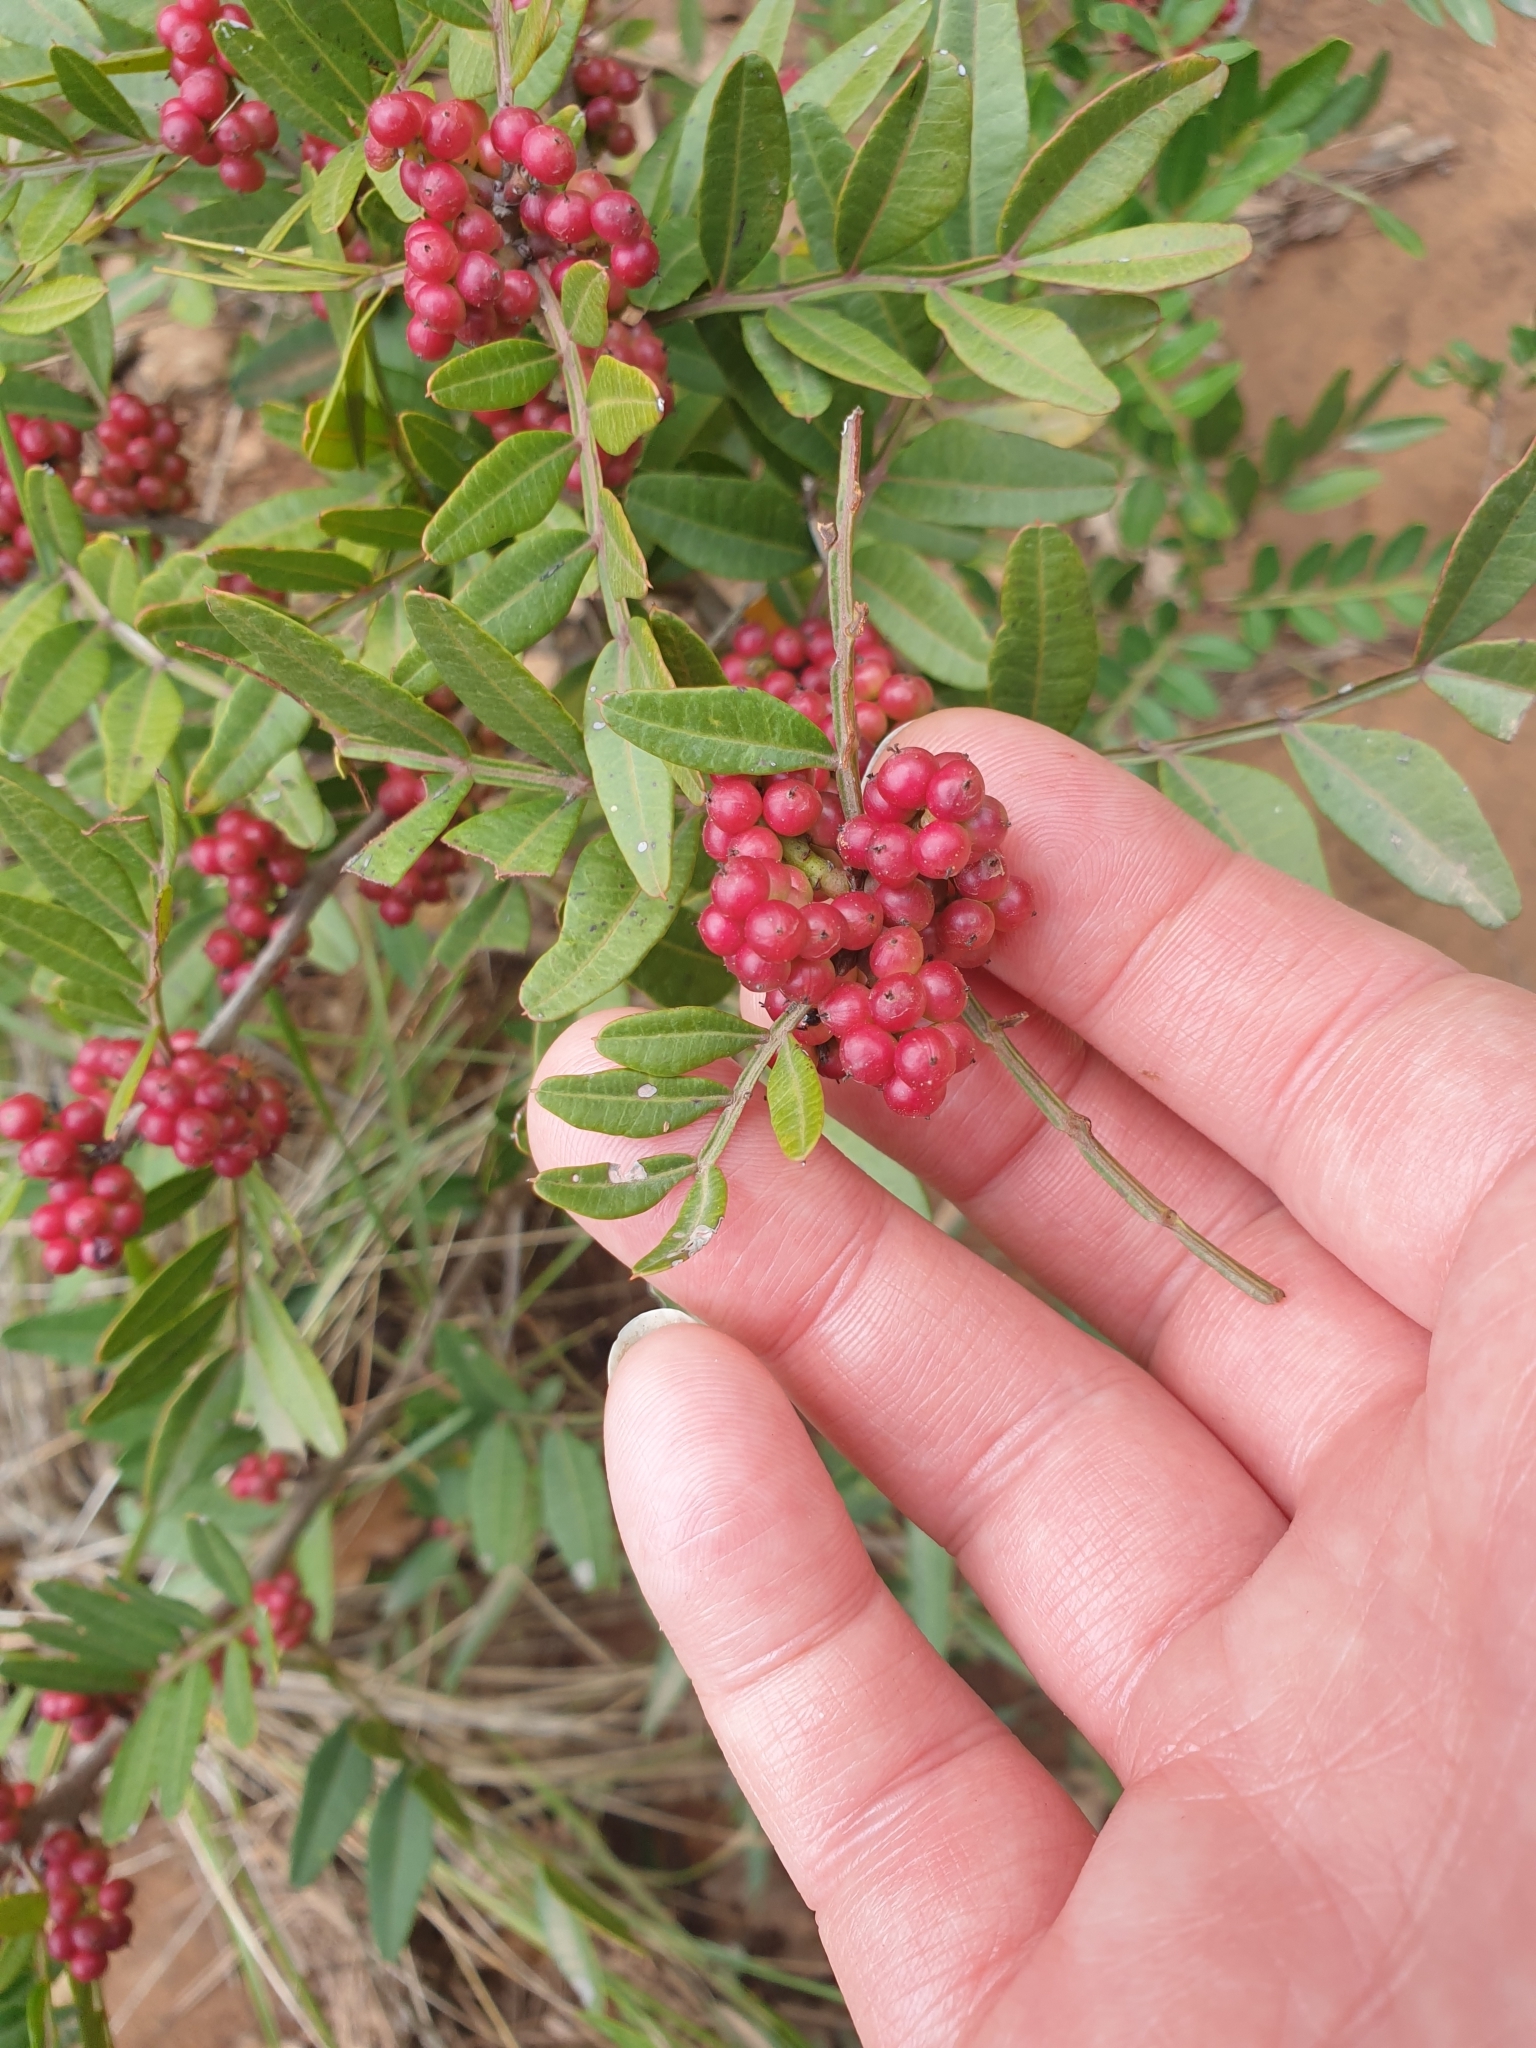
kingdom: Plantae
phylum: Tracheophyta
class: Magnoliopsida
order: Sapindales
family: Anacardiaceae
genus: Pistacia
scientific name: Pistacia lentiscus
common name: Lentisk
